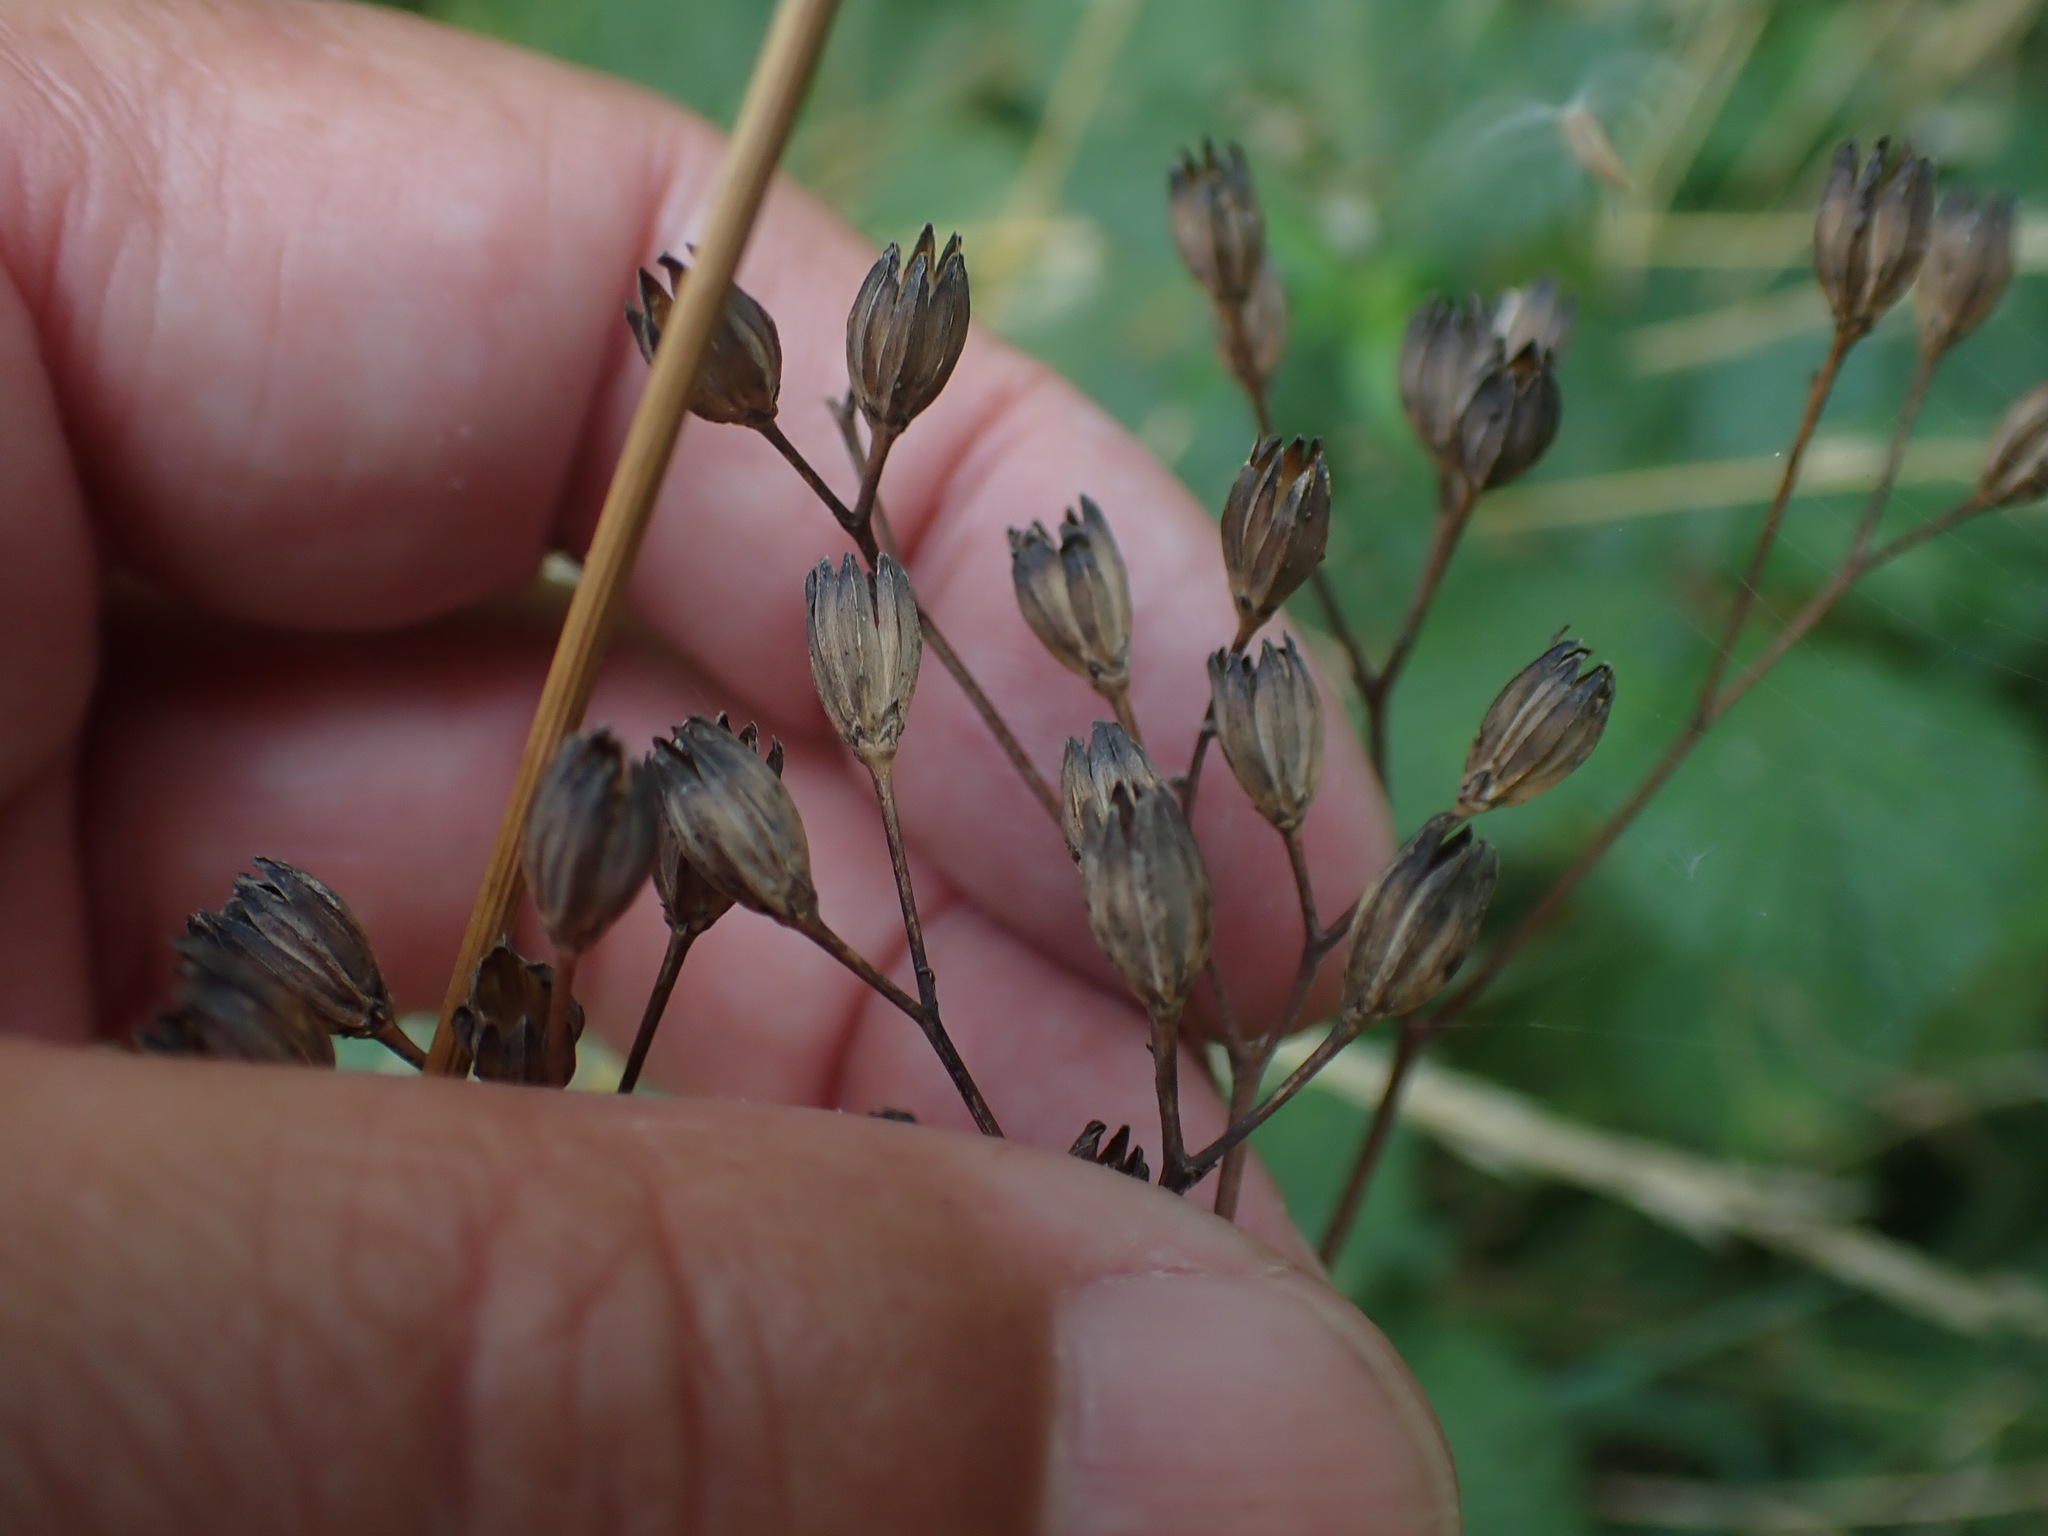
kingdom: Plantae
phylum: Tracheophyta
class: Magnoliopsida
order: Asterales
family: Asteraceae
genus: Lapsana
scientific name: Lapsana communis
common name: Nipplewort
